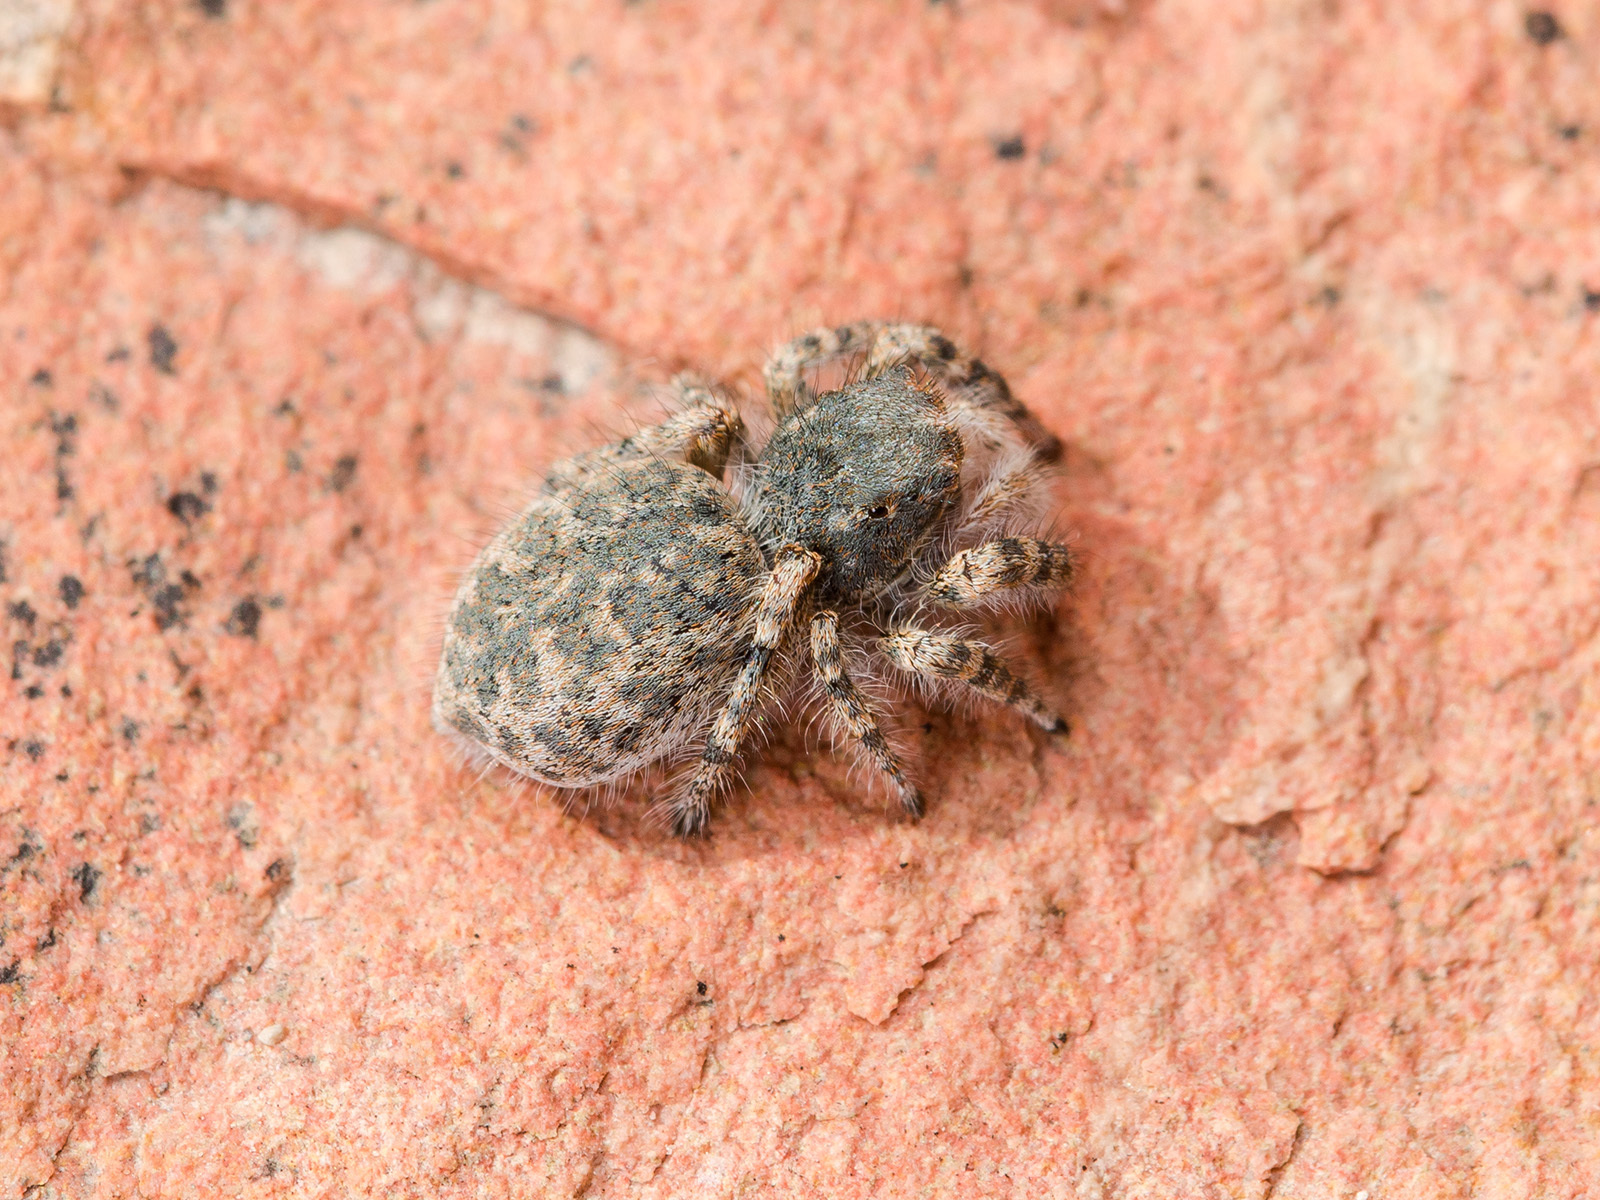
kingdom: Animalia
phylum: Arthropoda
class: Arachnida
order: Araneae
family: Salticidae
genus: Yllenus
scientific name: Yllenus charynensis
